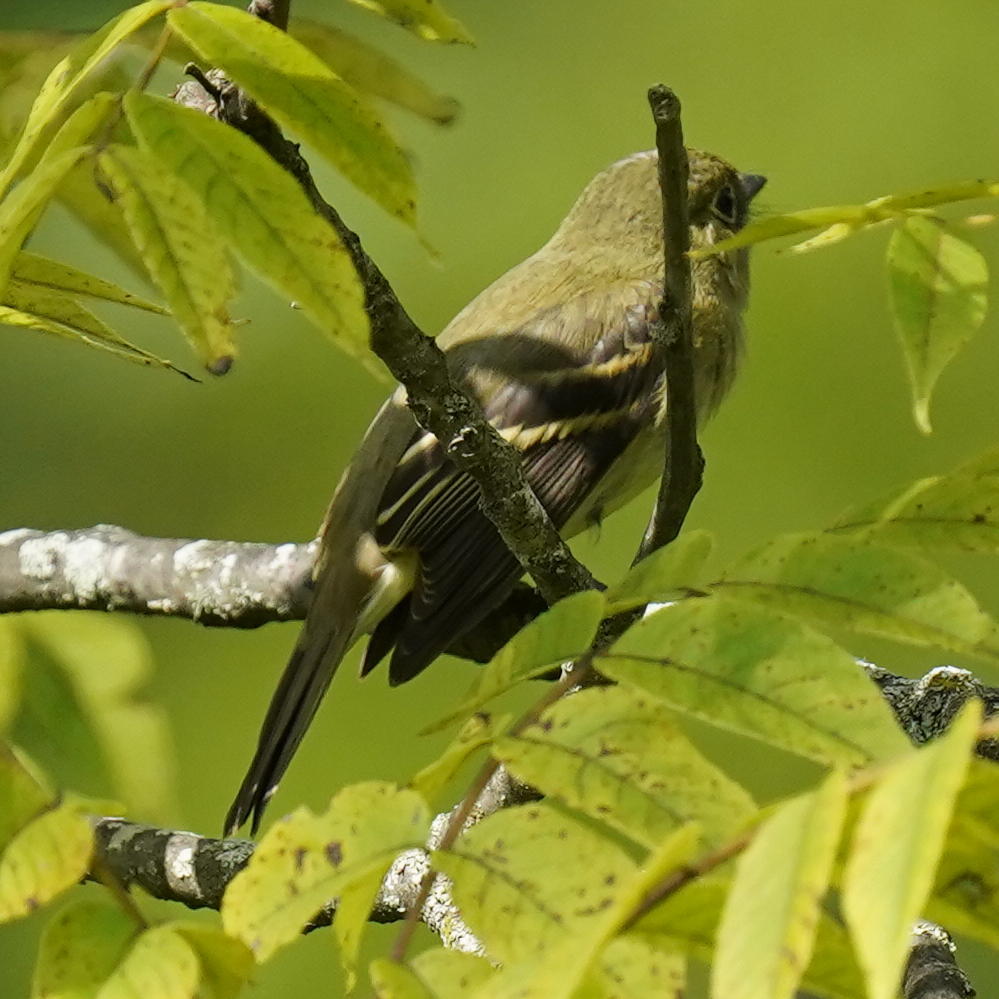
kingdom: Animalia
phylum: Chordata
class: Aves
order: Passeriformes
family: Tyrannidae
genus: Empidonax
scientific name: Empidonax flaviventris
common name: Yellow-bellied flycatcher
